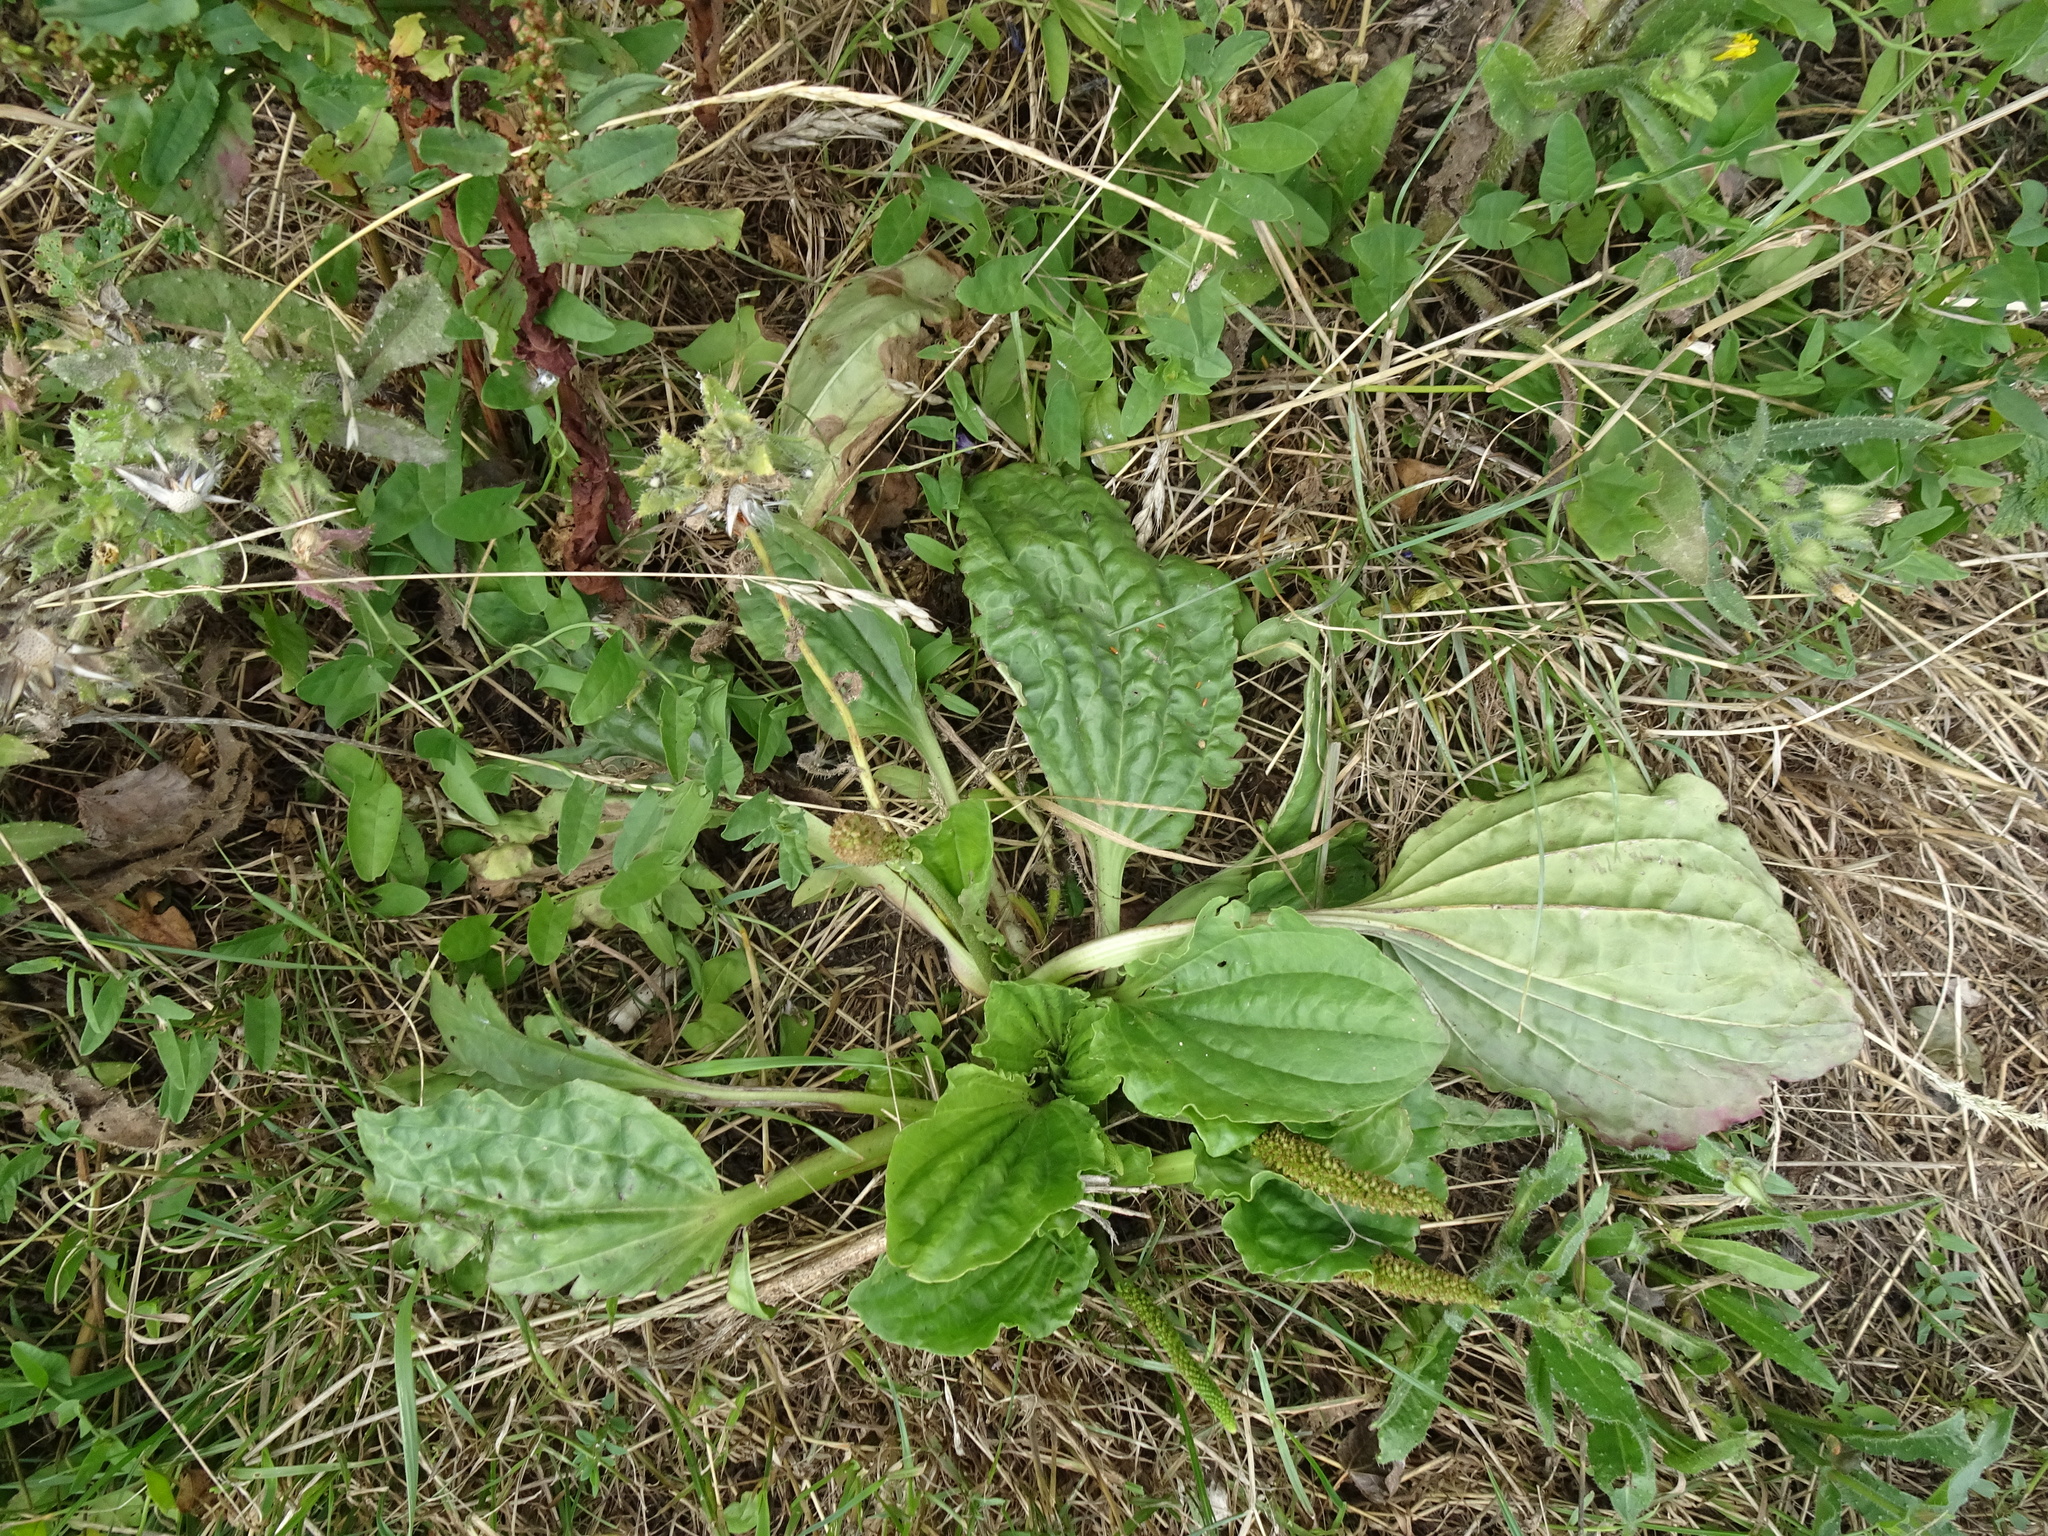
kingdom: Plantae
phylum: Tracheophyta
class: Magnoliopsida
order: Lamiales
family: Plantaginaceae
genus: Plantago
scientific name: Plantago major
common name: Common plantain
